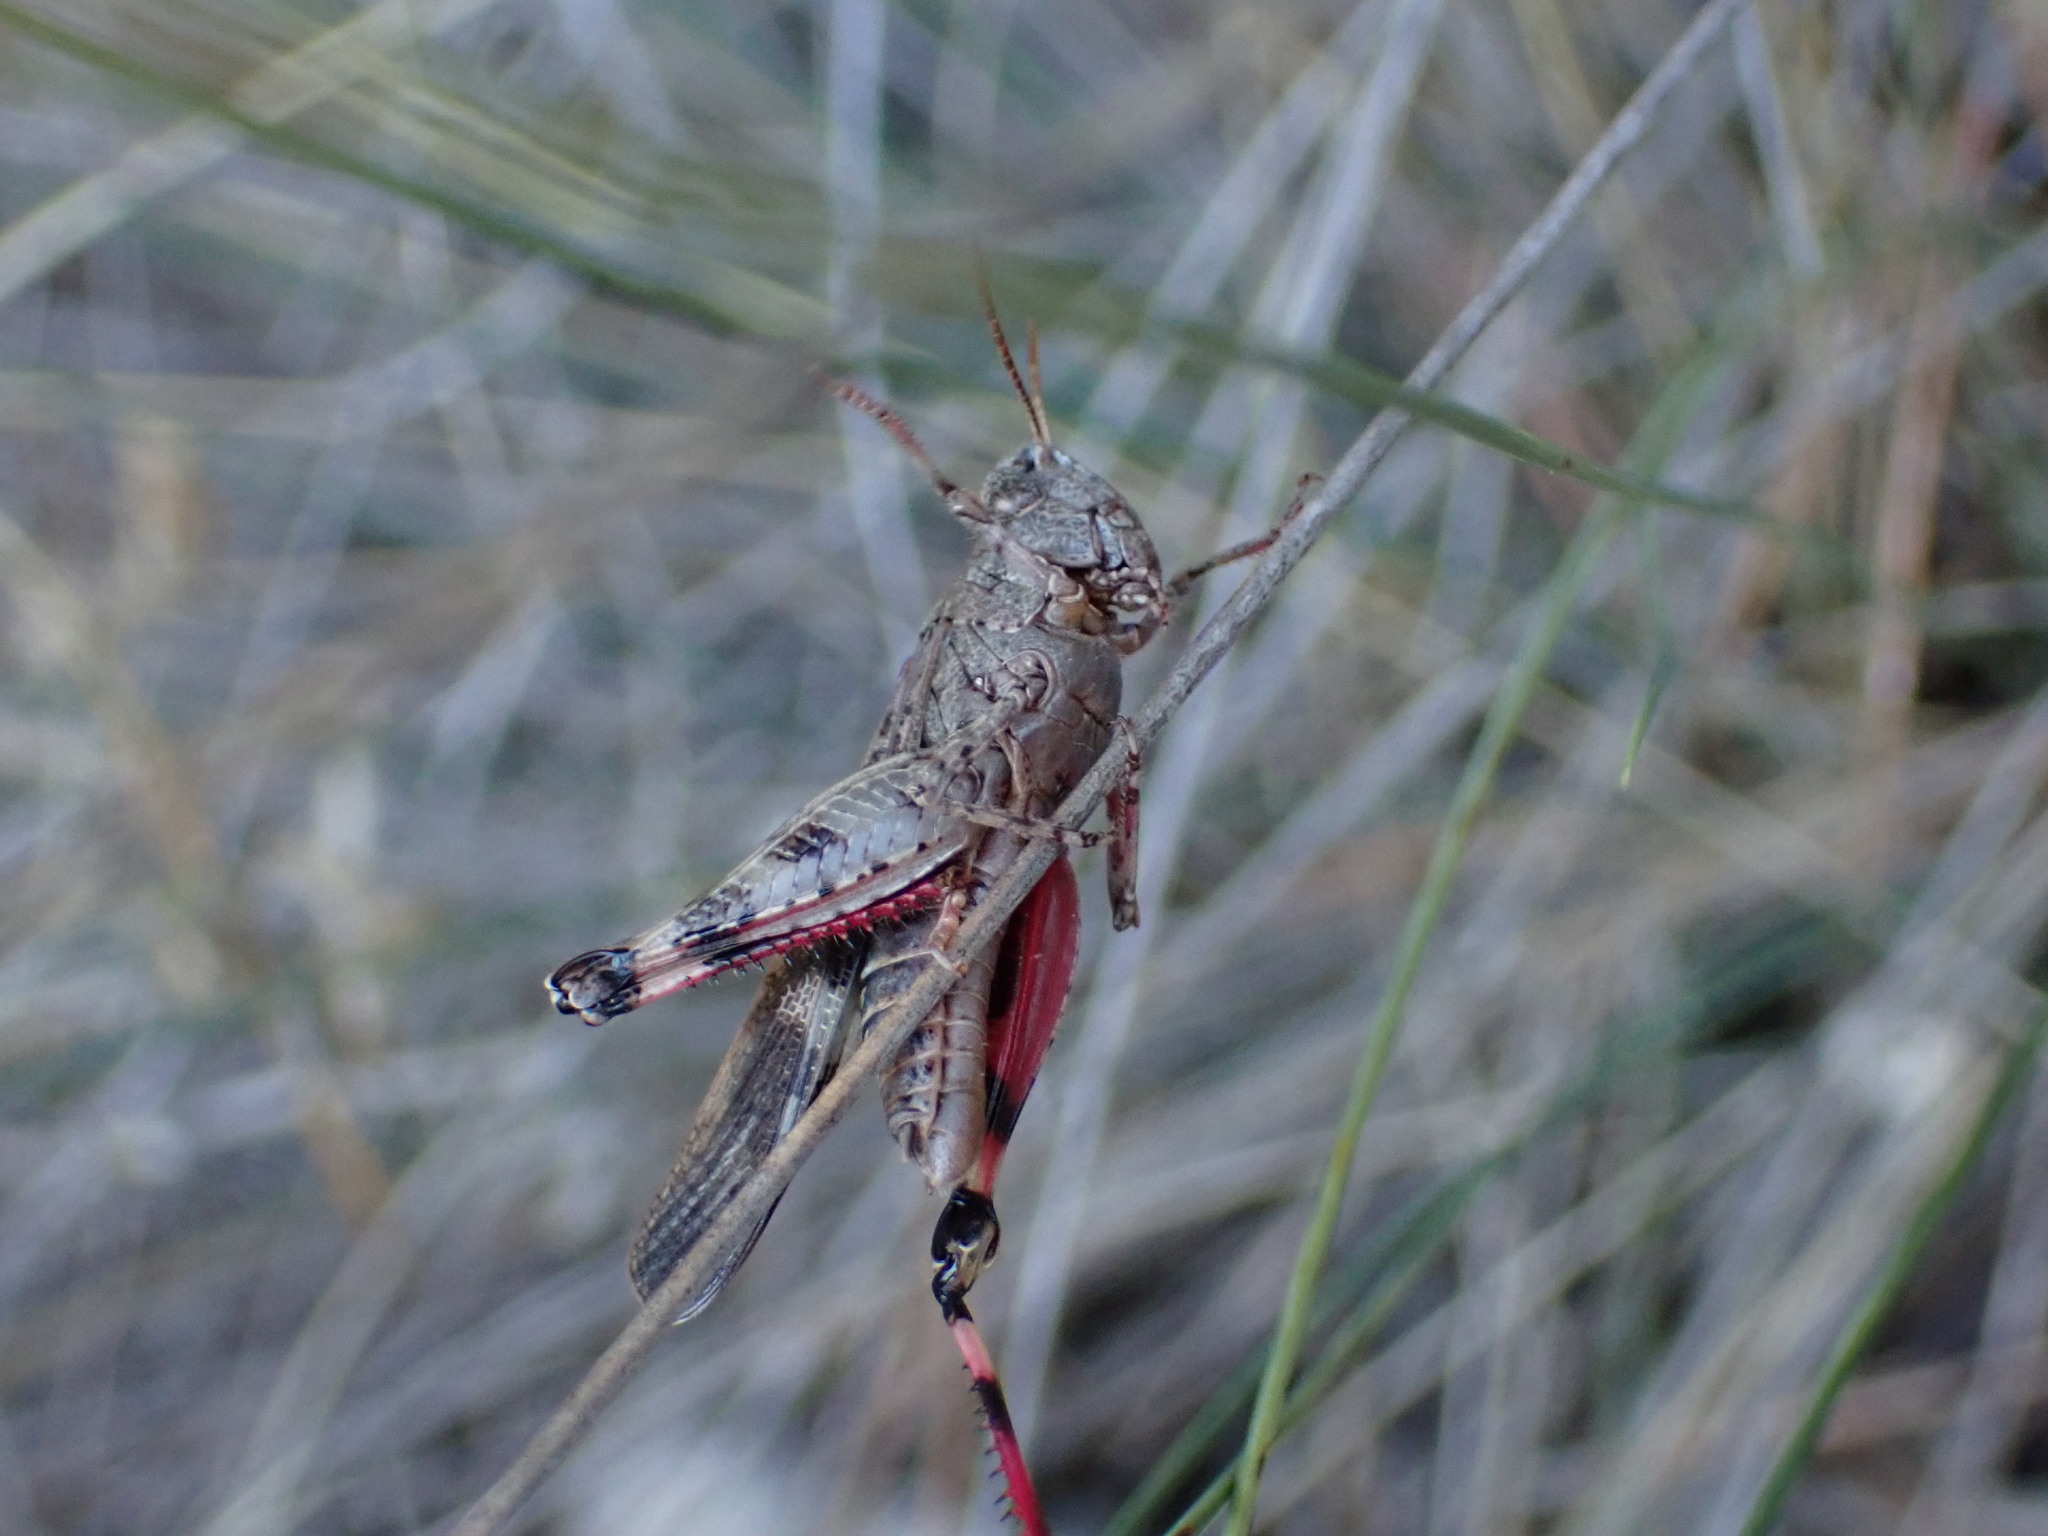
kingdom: Animalia
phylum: Arthropoda
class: Insecta
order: Orthoptera
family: Acrididae
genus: Aiolopus
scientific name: Aiolopus strepens
